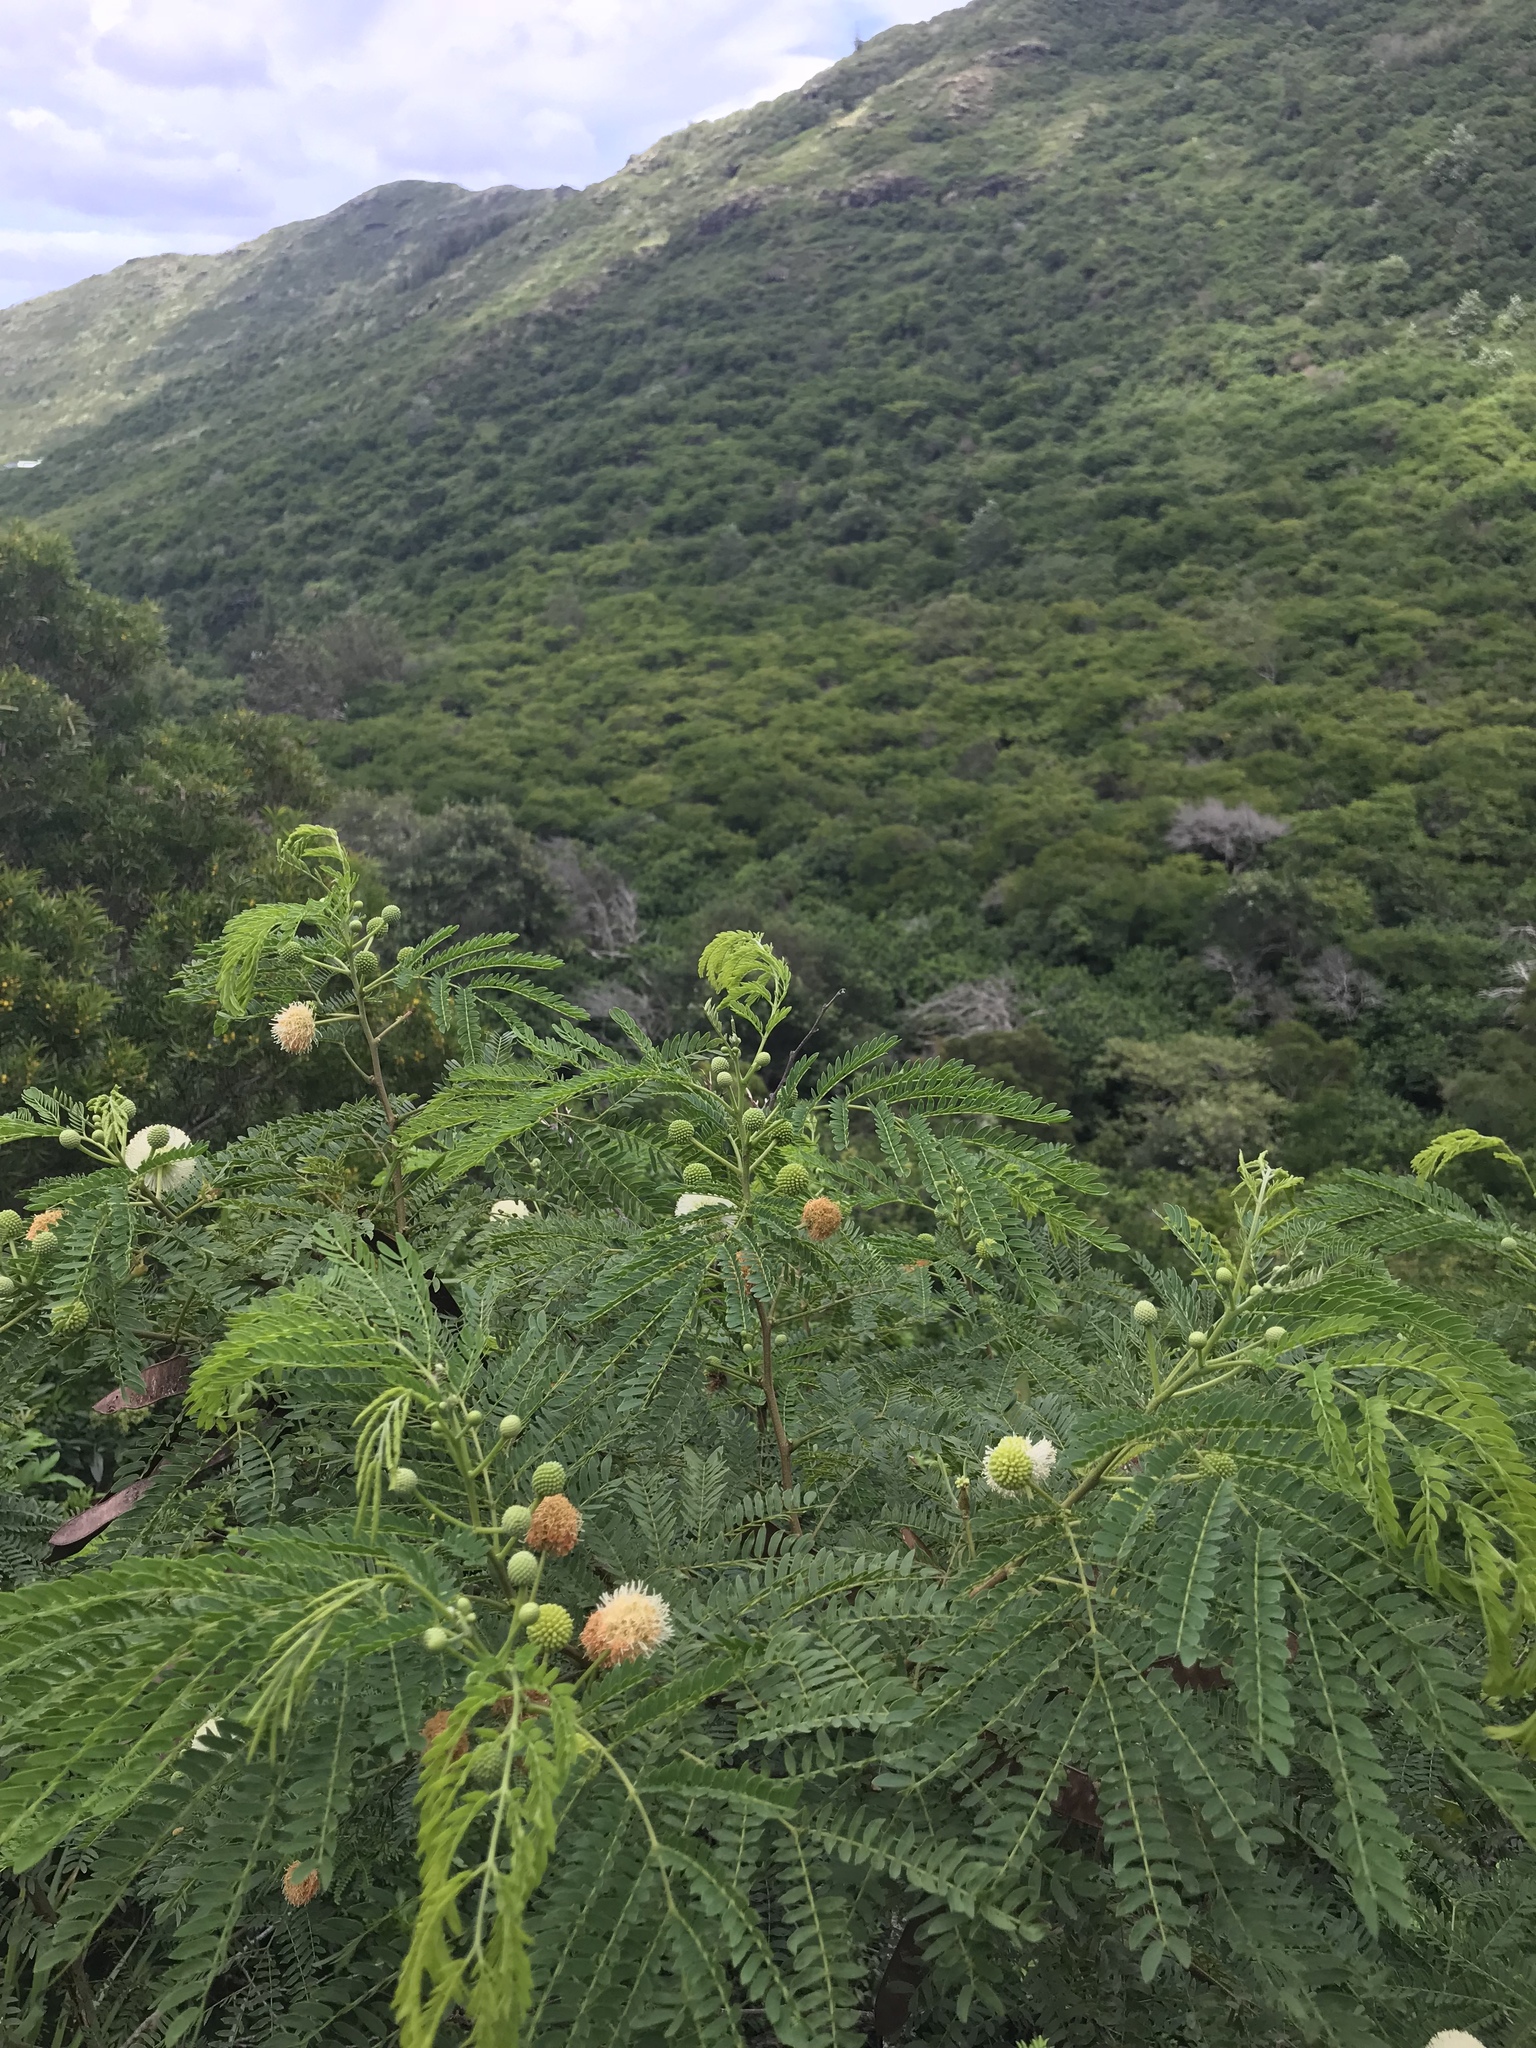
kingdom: Plantae
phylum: Tracheophyta
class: Magnoliopsida
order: Fabales
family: Fabaceae
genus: Leucaena
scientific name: Leucaena leucocephala
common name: White leadtree
